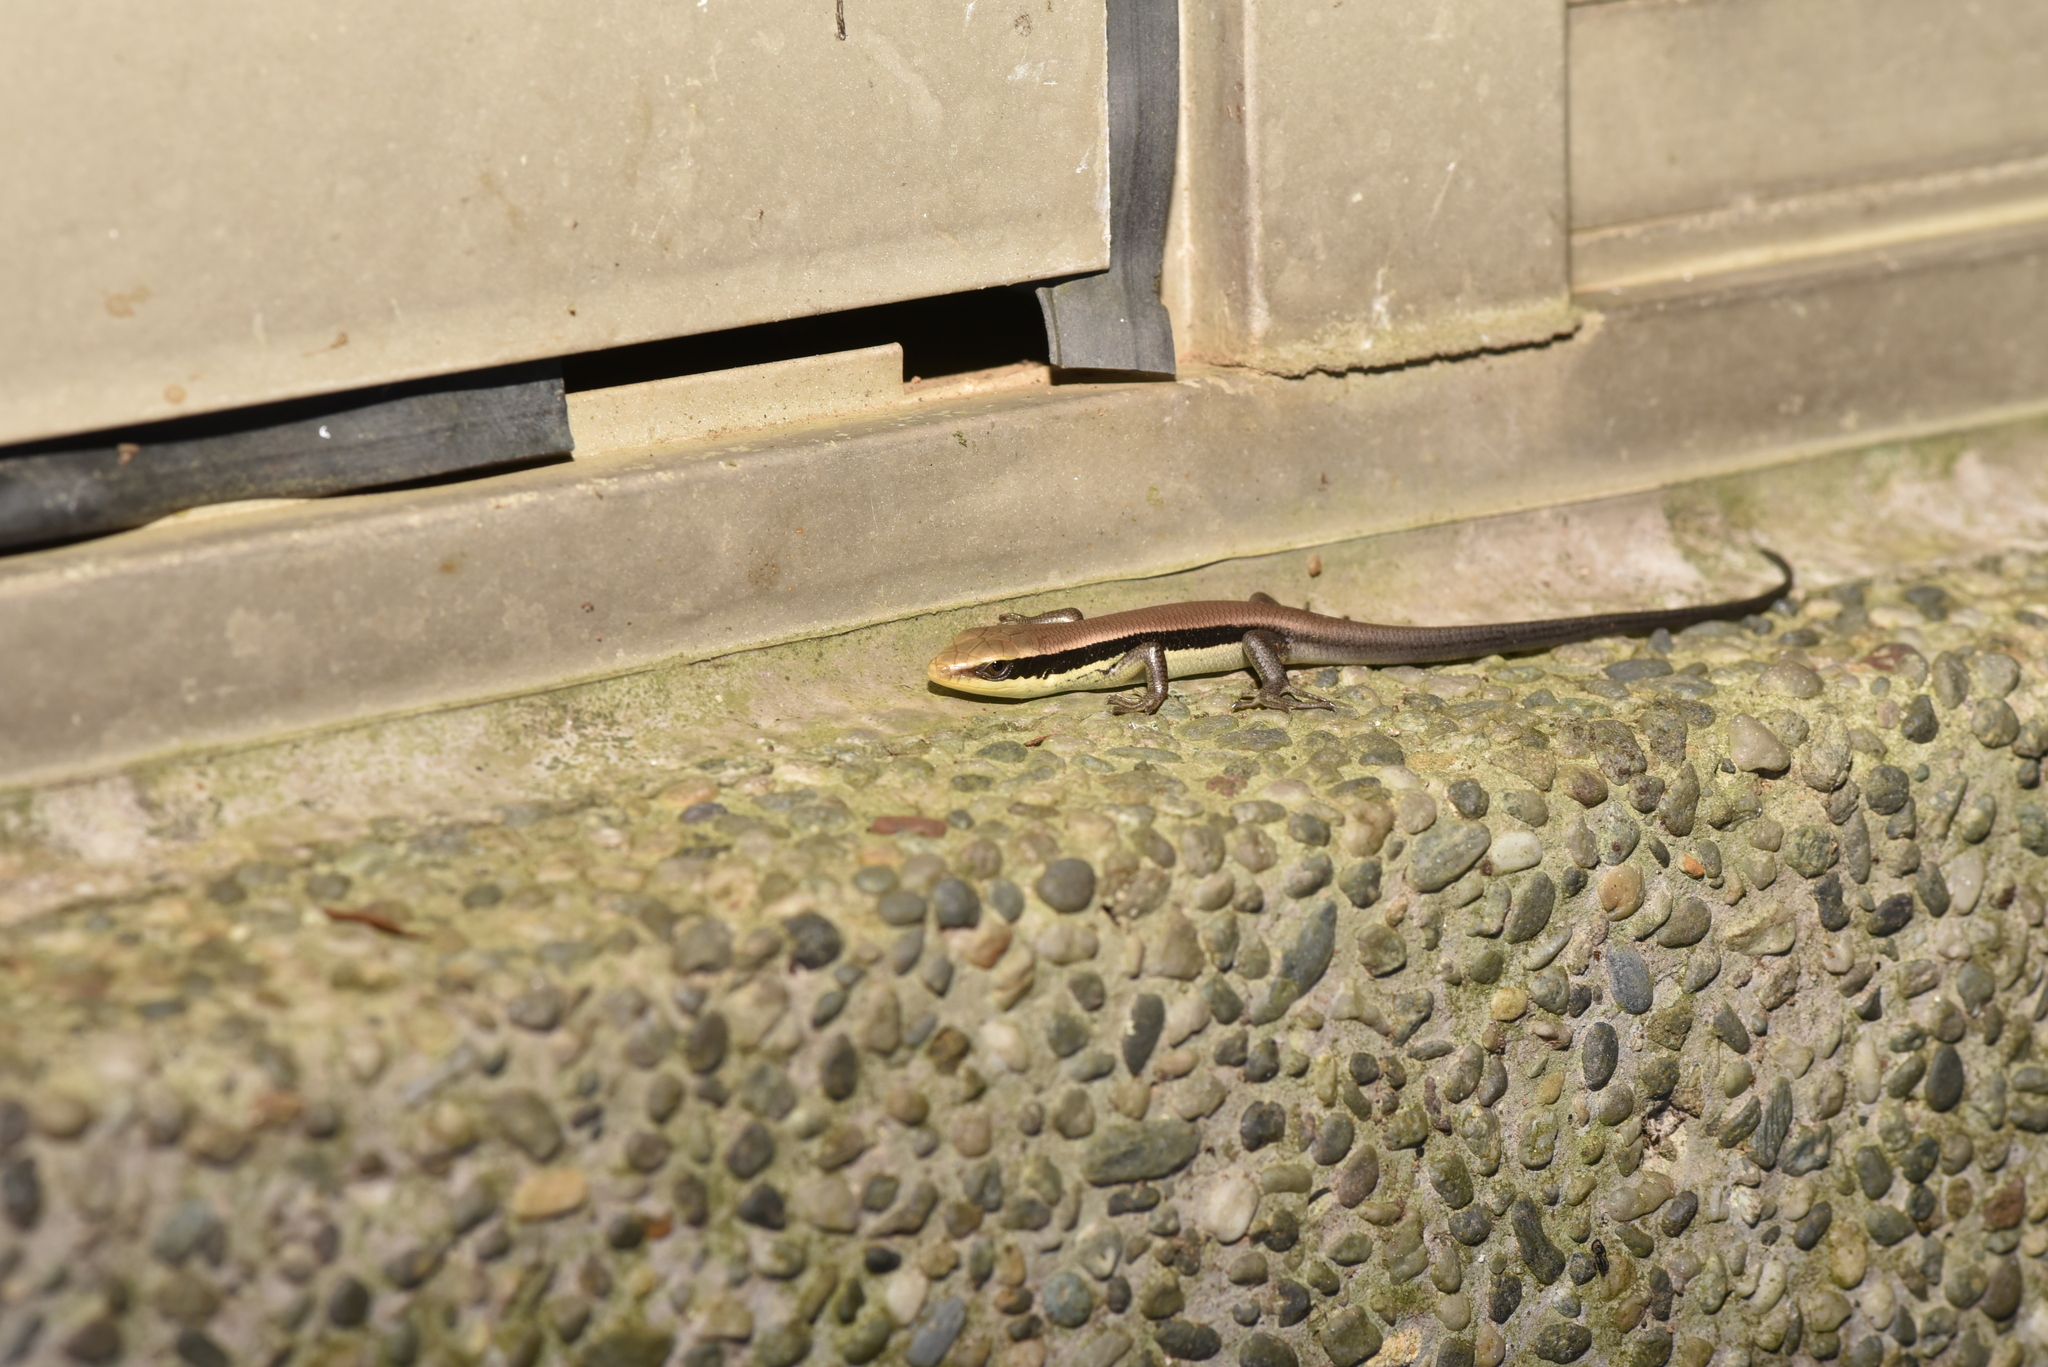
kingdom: Animalia
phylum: Chordata
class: Squamata
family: Scincidae
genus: Eutropis
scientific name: Eutropis longicaudata
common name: Long-tailed sun skink
